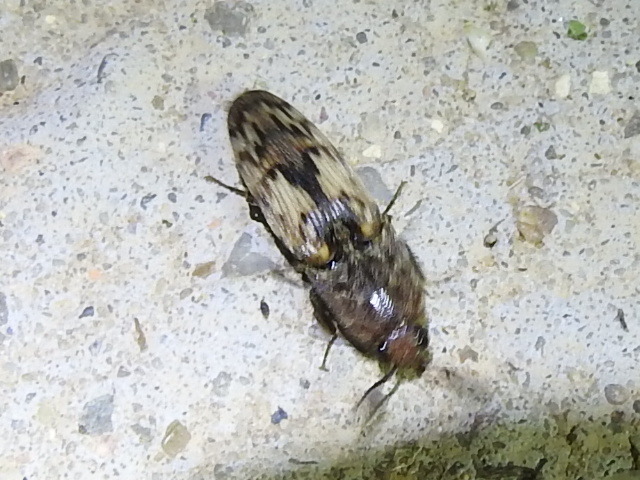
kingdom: Animalia
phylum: Arthropoda
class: Insecta
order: Coleoptera
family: Elateridae
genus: Pherhimius
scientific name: Pherhimius fascicularis
